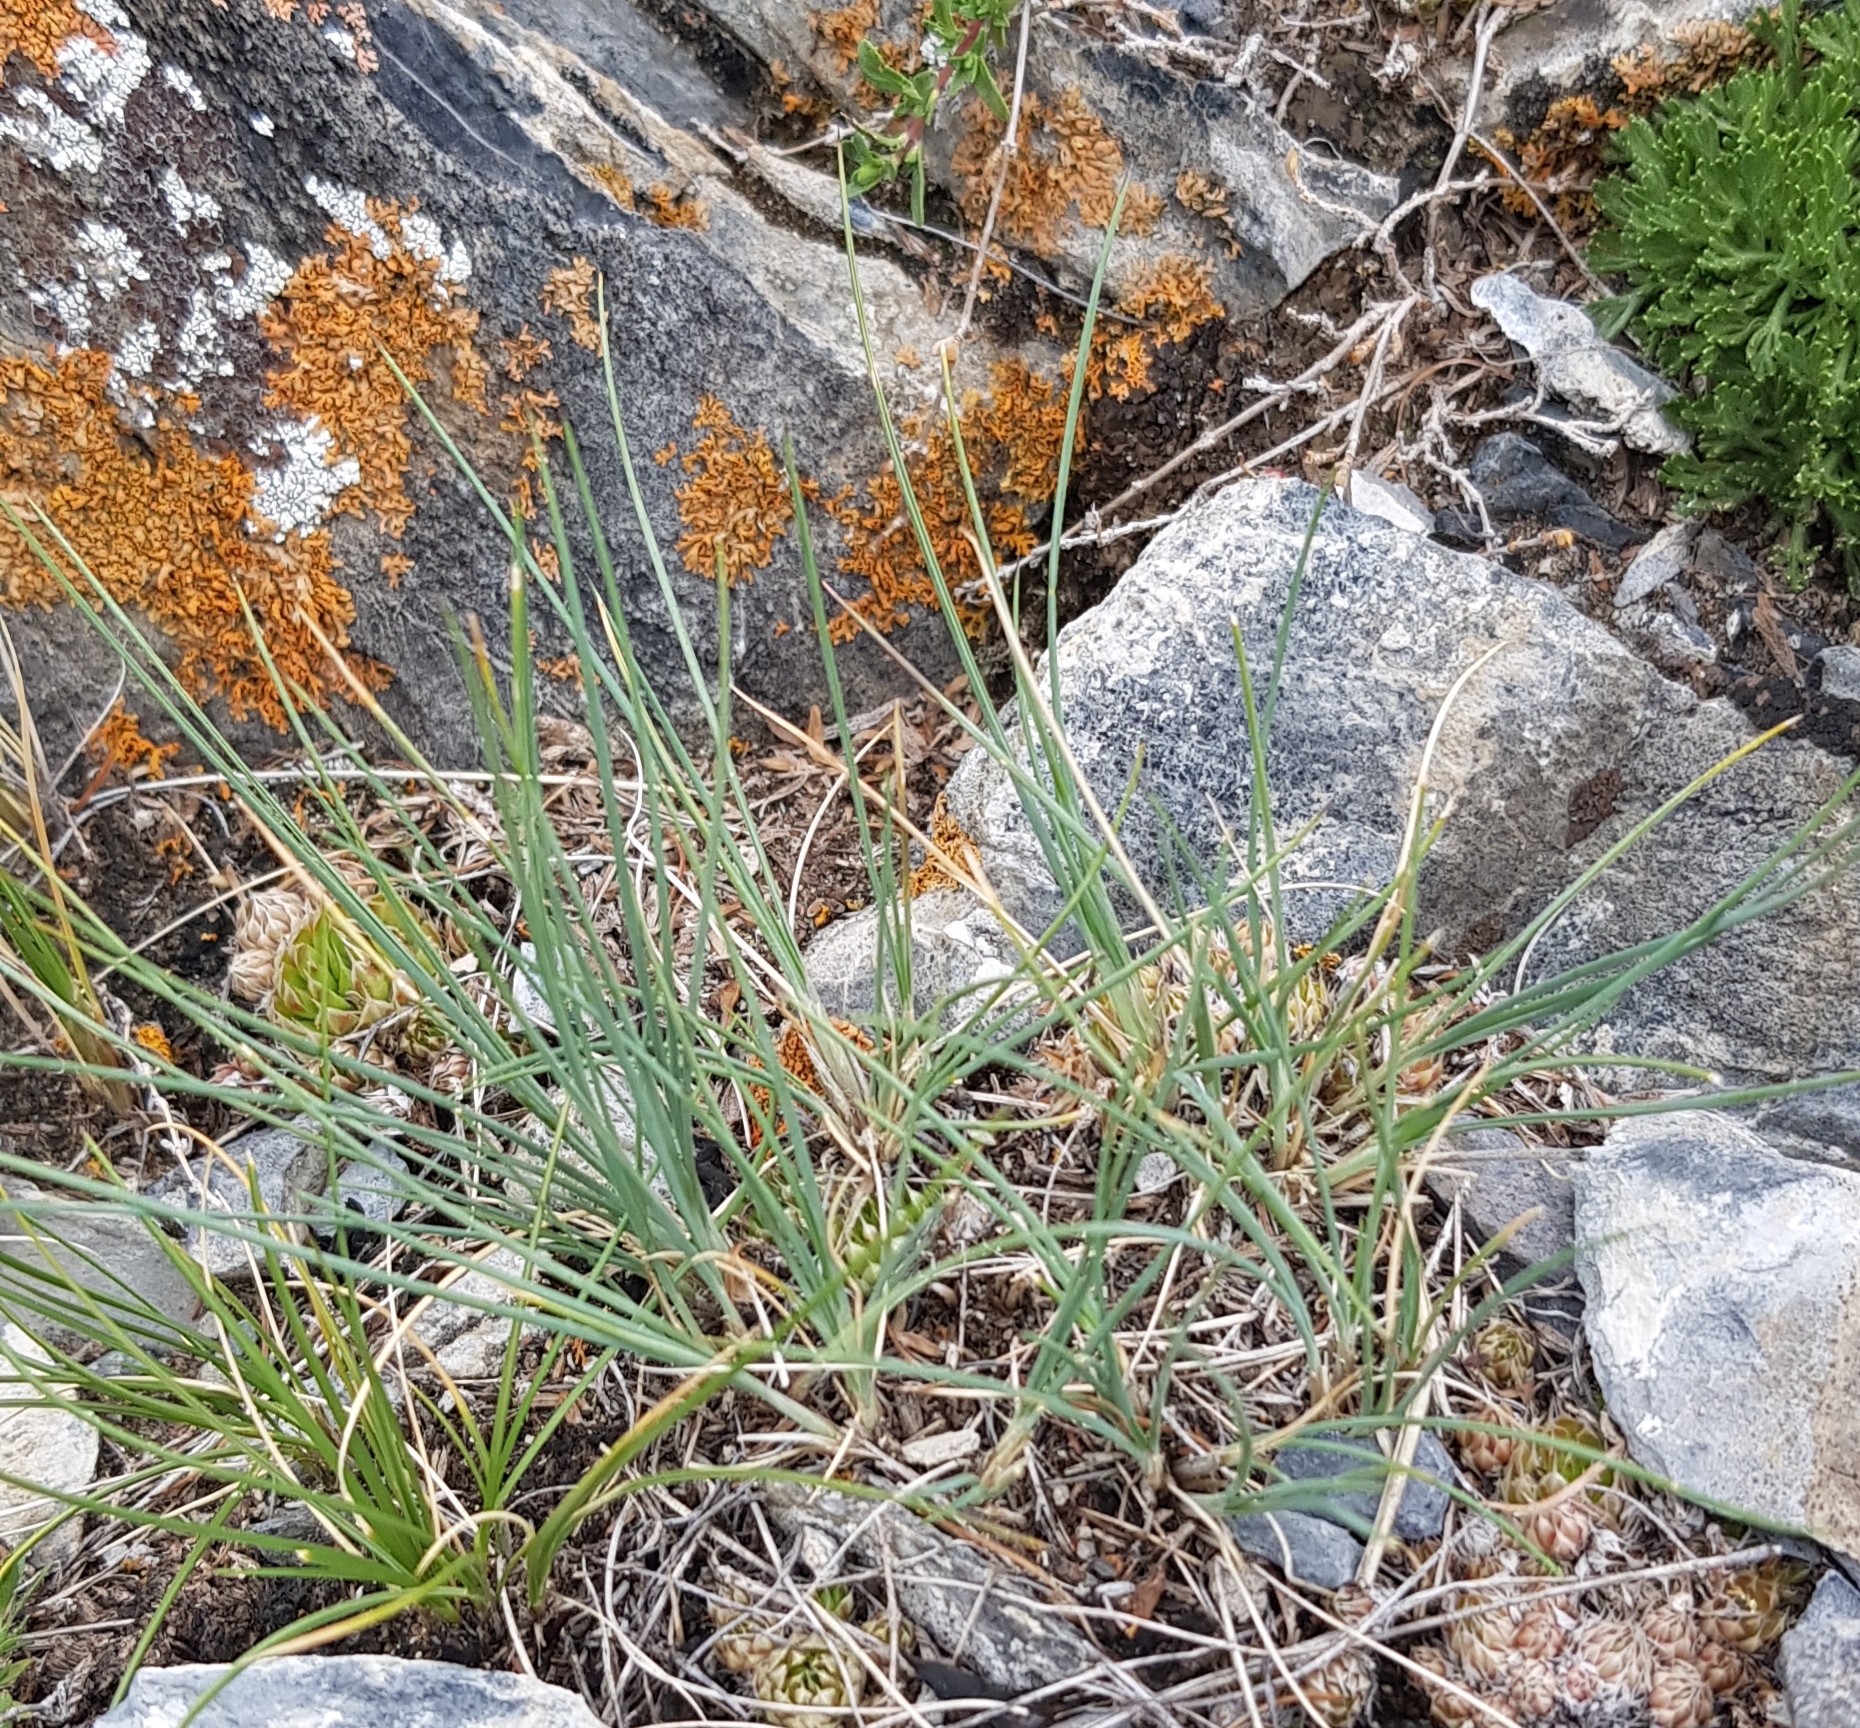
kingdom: Plantae
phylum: Tracheophyta
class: Liliopsida
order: Poales
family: Poaceae
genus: Festuca
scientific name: Festuca lenensis
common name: Lena river fescue
